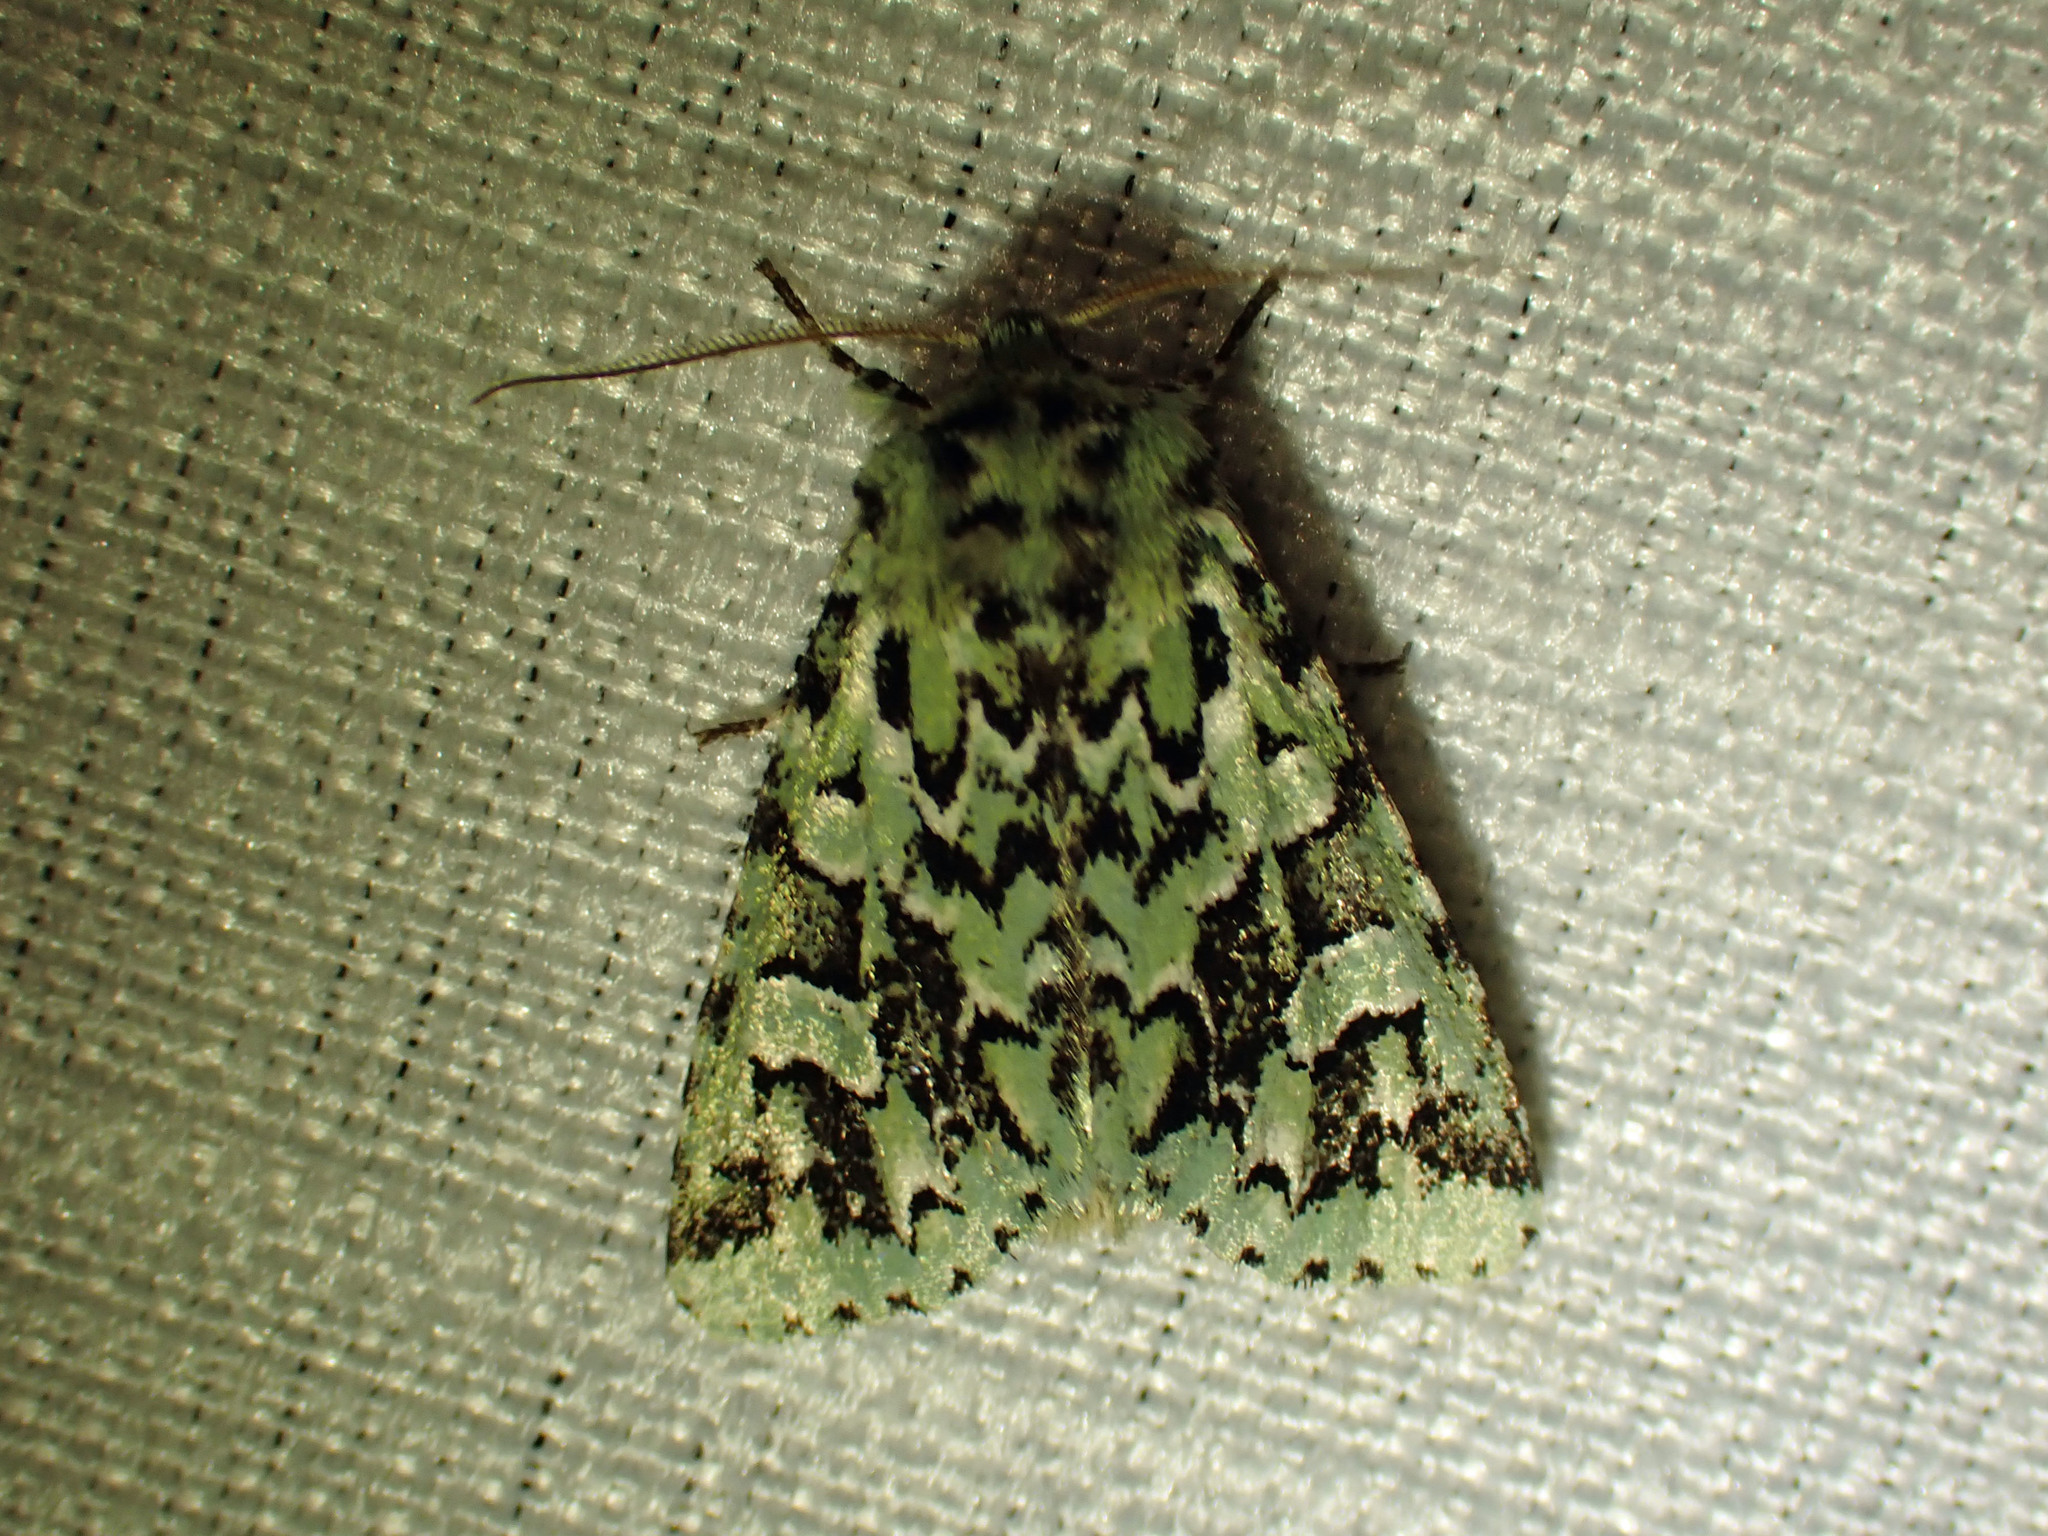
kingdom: Animalia
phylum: Arthropoda
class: Insecta
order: Lepidoptera
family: Noctuidae
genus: Feralia
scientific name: Feralia comstocki
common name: Comstock's sallow
